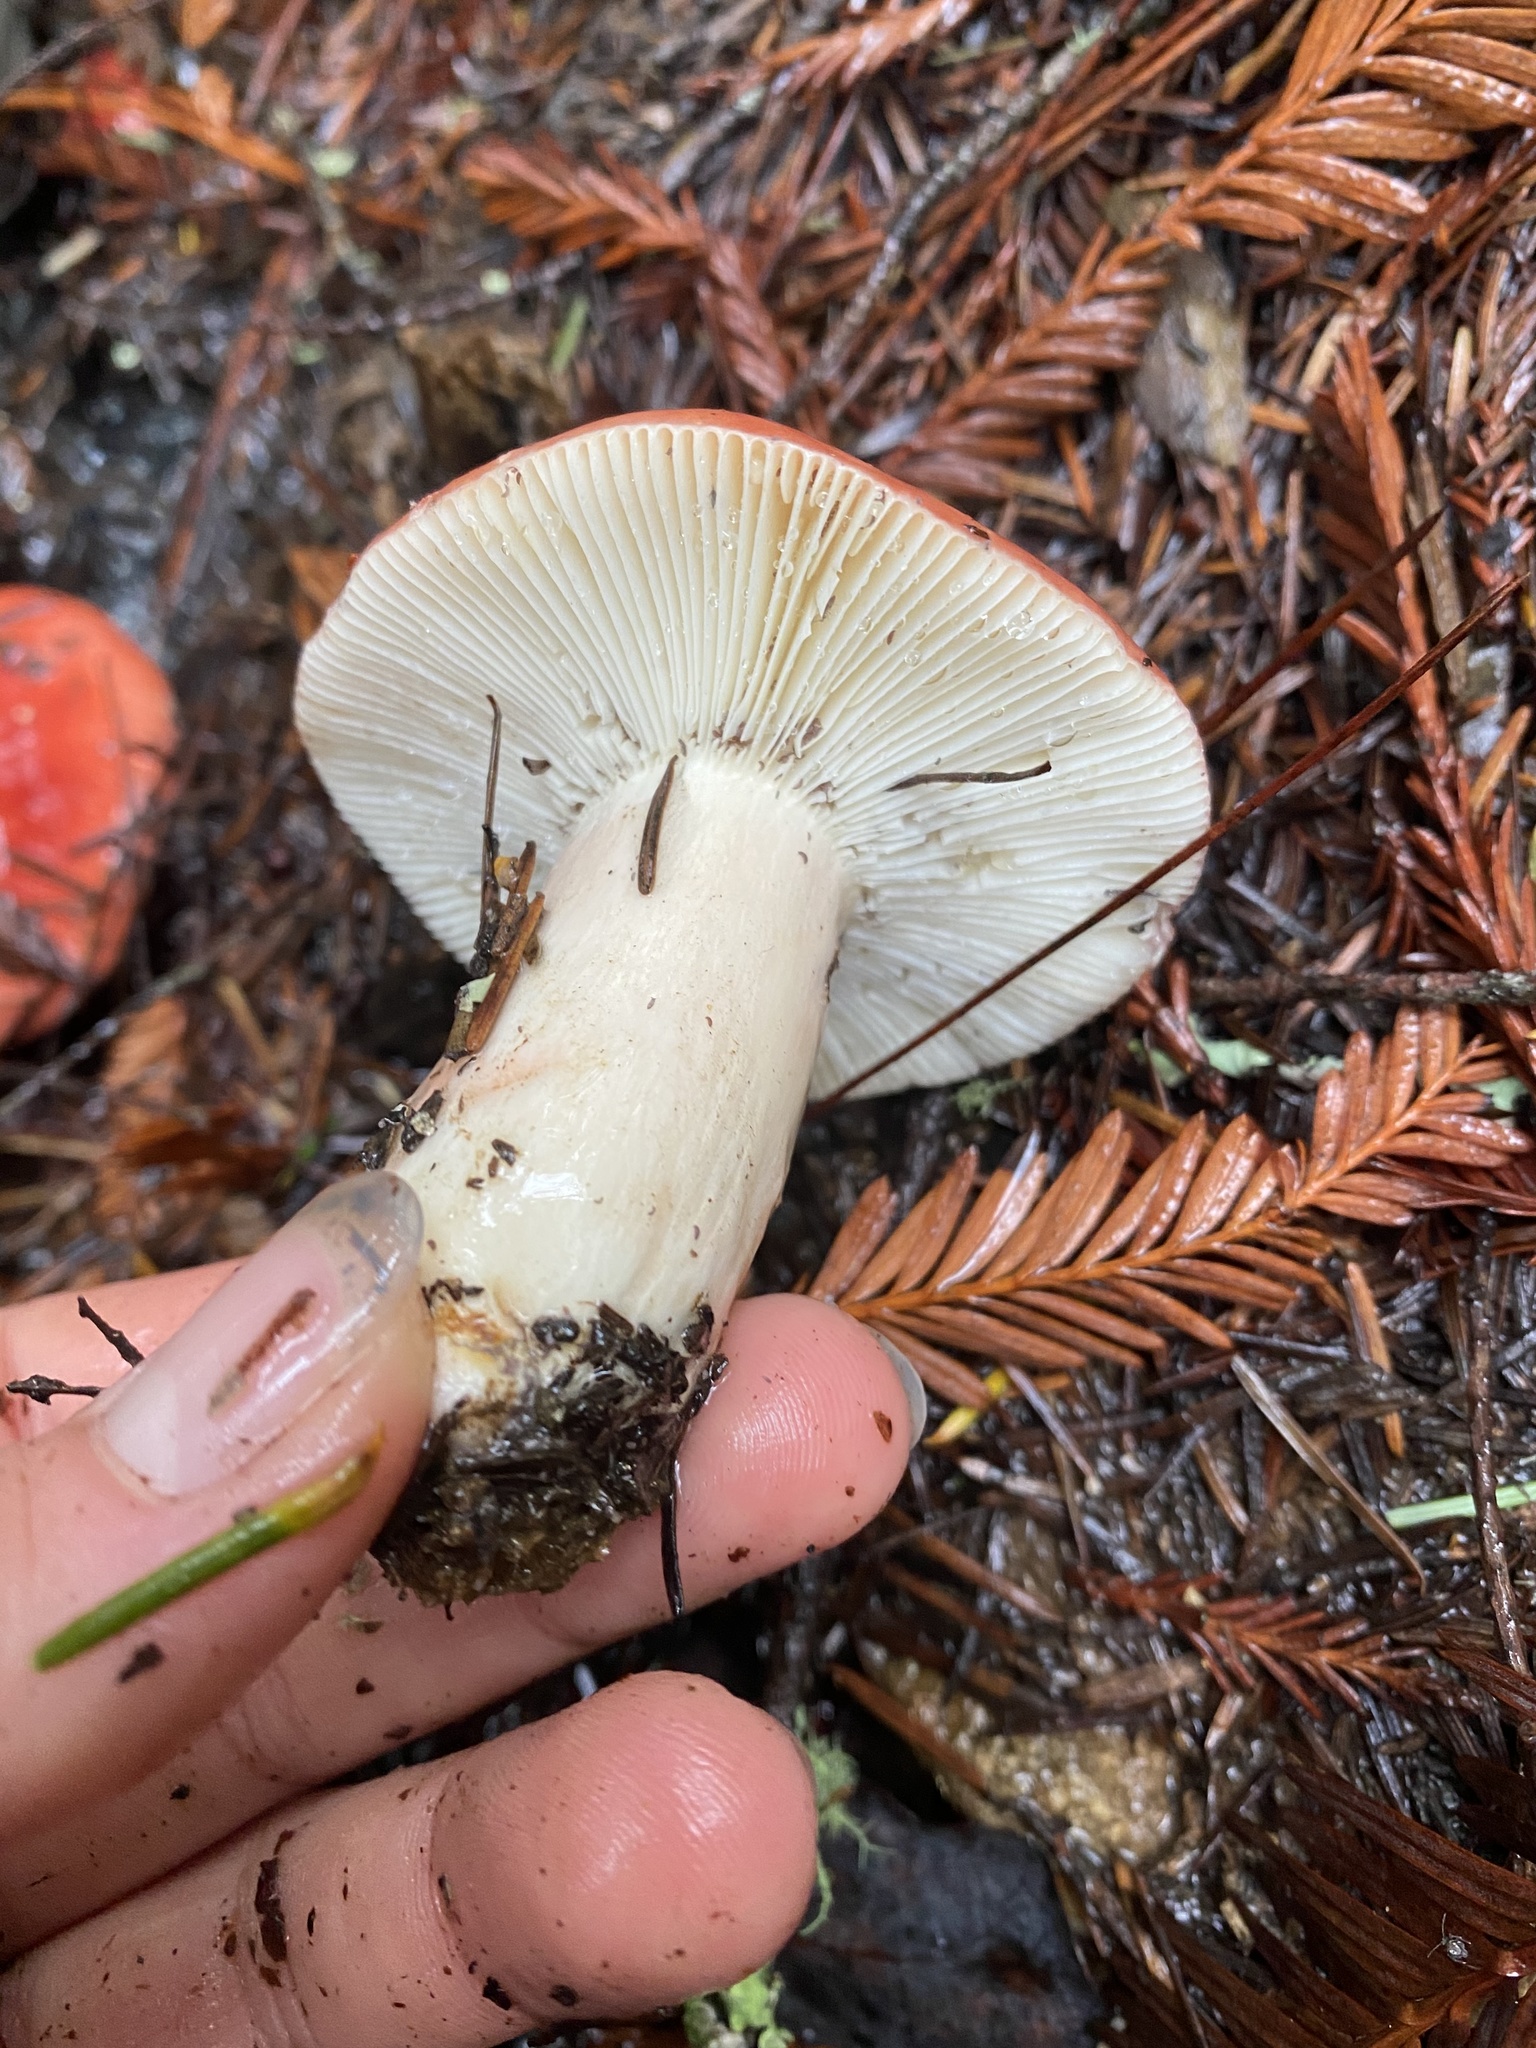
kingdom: Fungi
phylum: Basidiomycota
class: Agaricomycetes
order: Russulales
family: Russulaceae
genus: Russula
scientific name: Russula cremoricolor
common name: Winter russula
